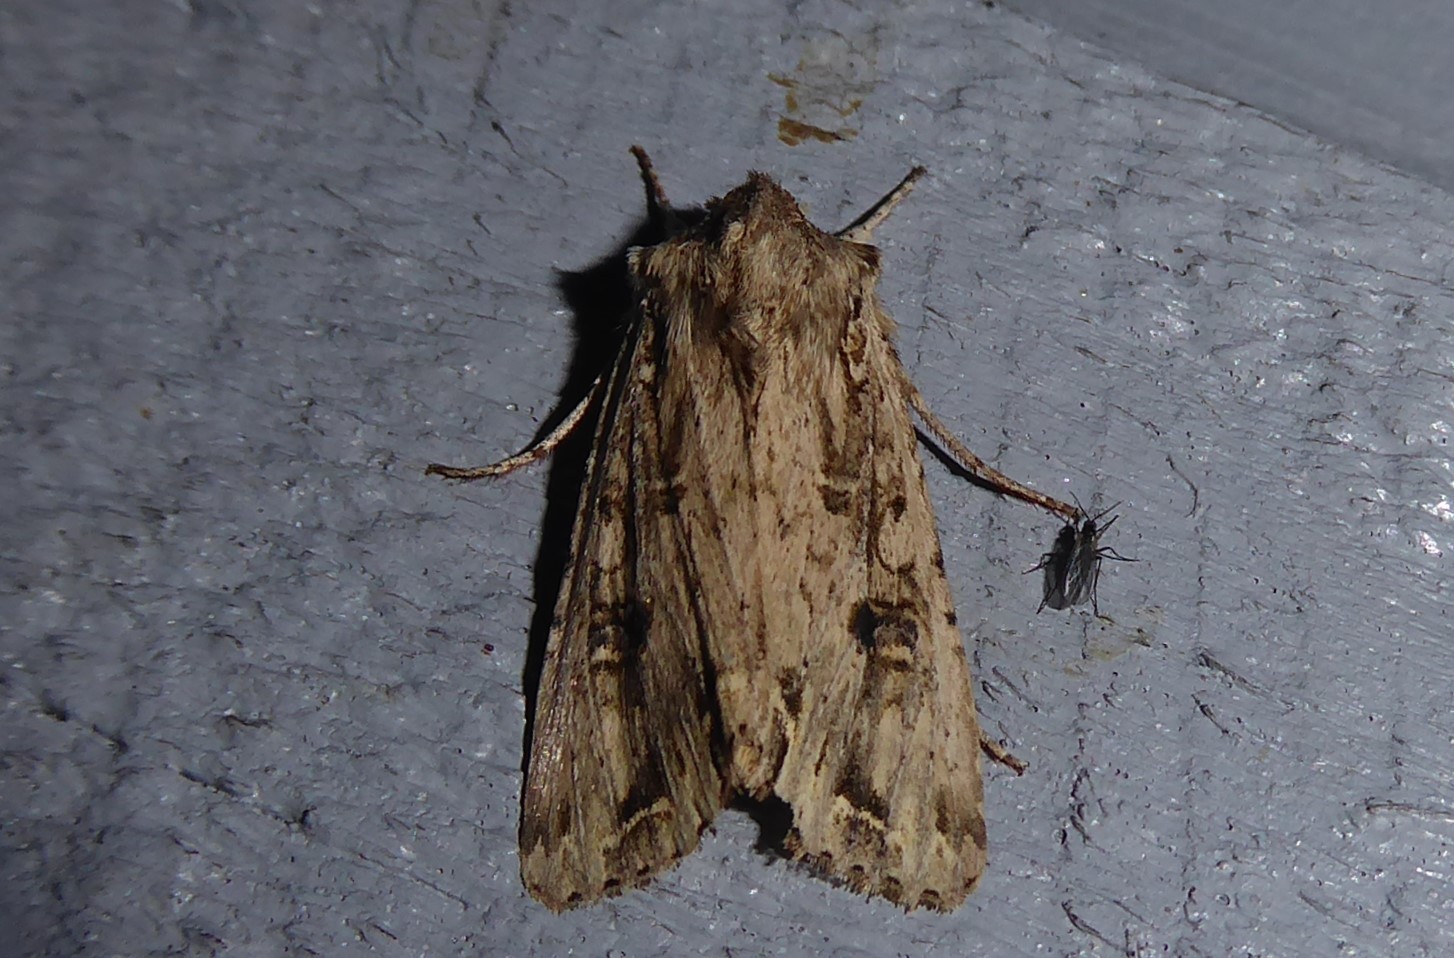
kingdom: Animalia
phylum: Arthropoda
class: Insecta
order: Lepidoptera
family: Noctuidae
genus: Ichneutica
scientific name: Ichneutica lignana
